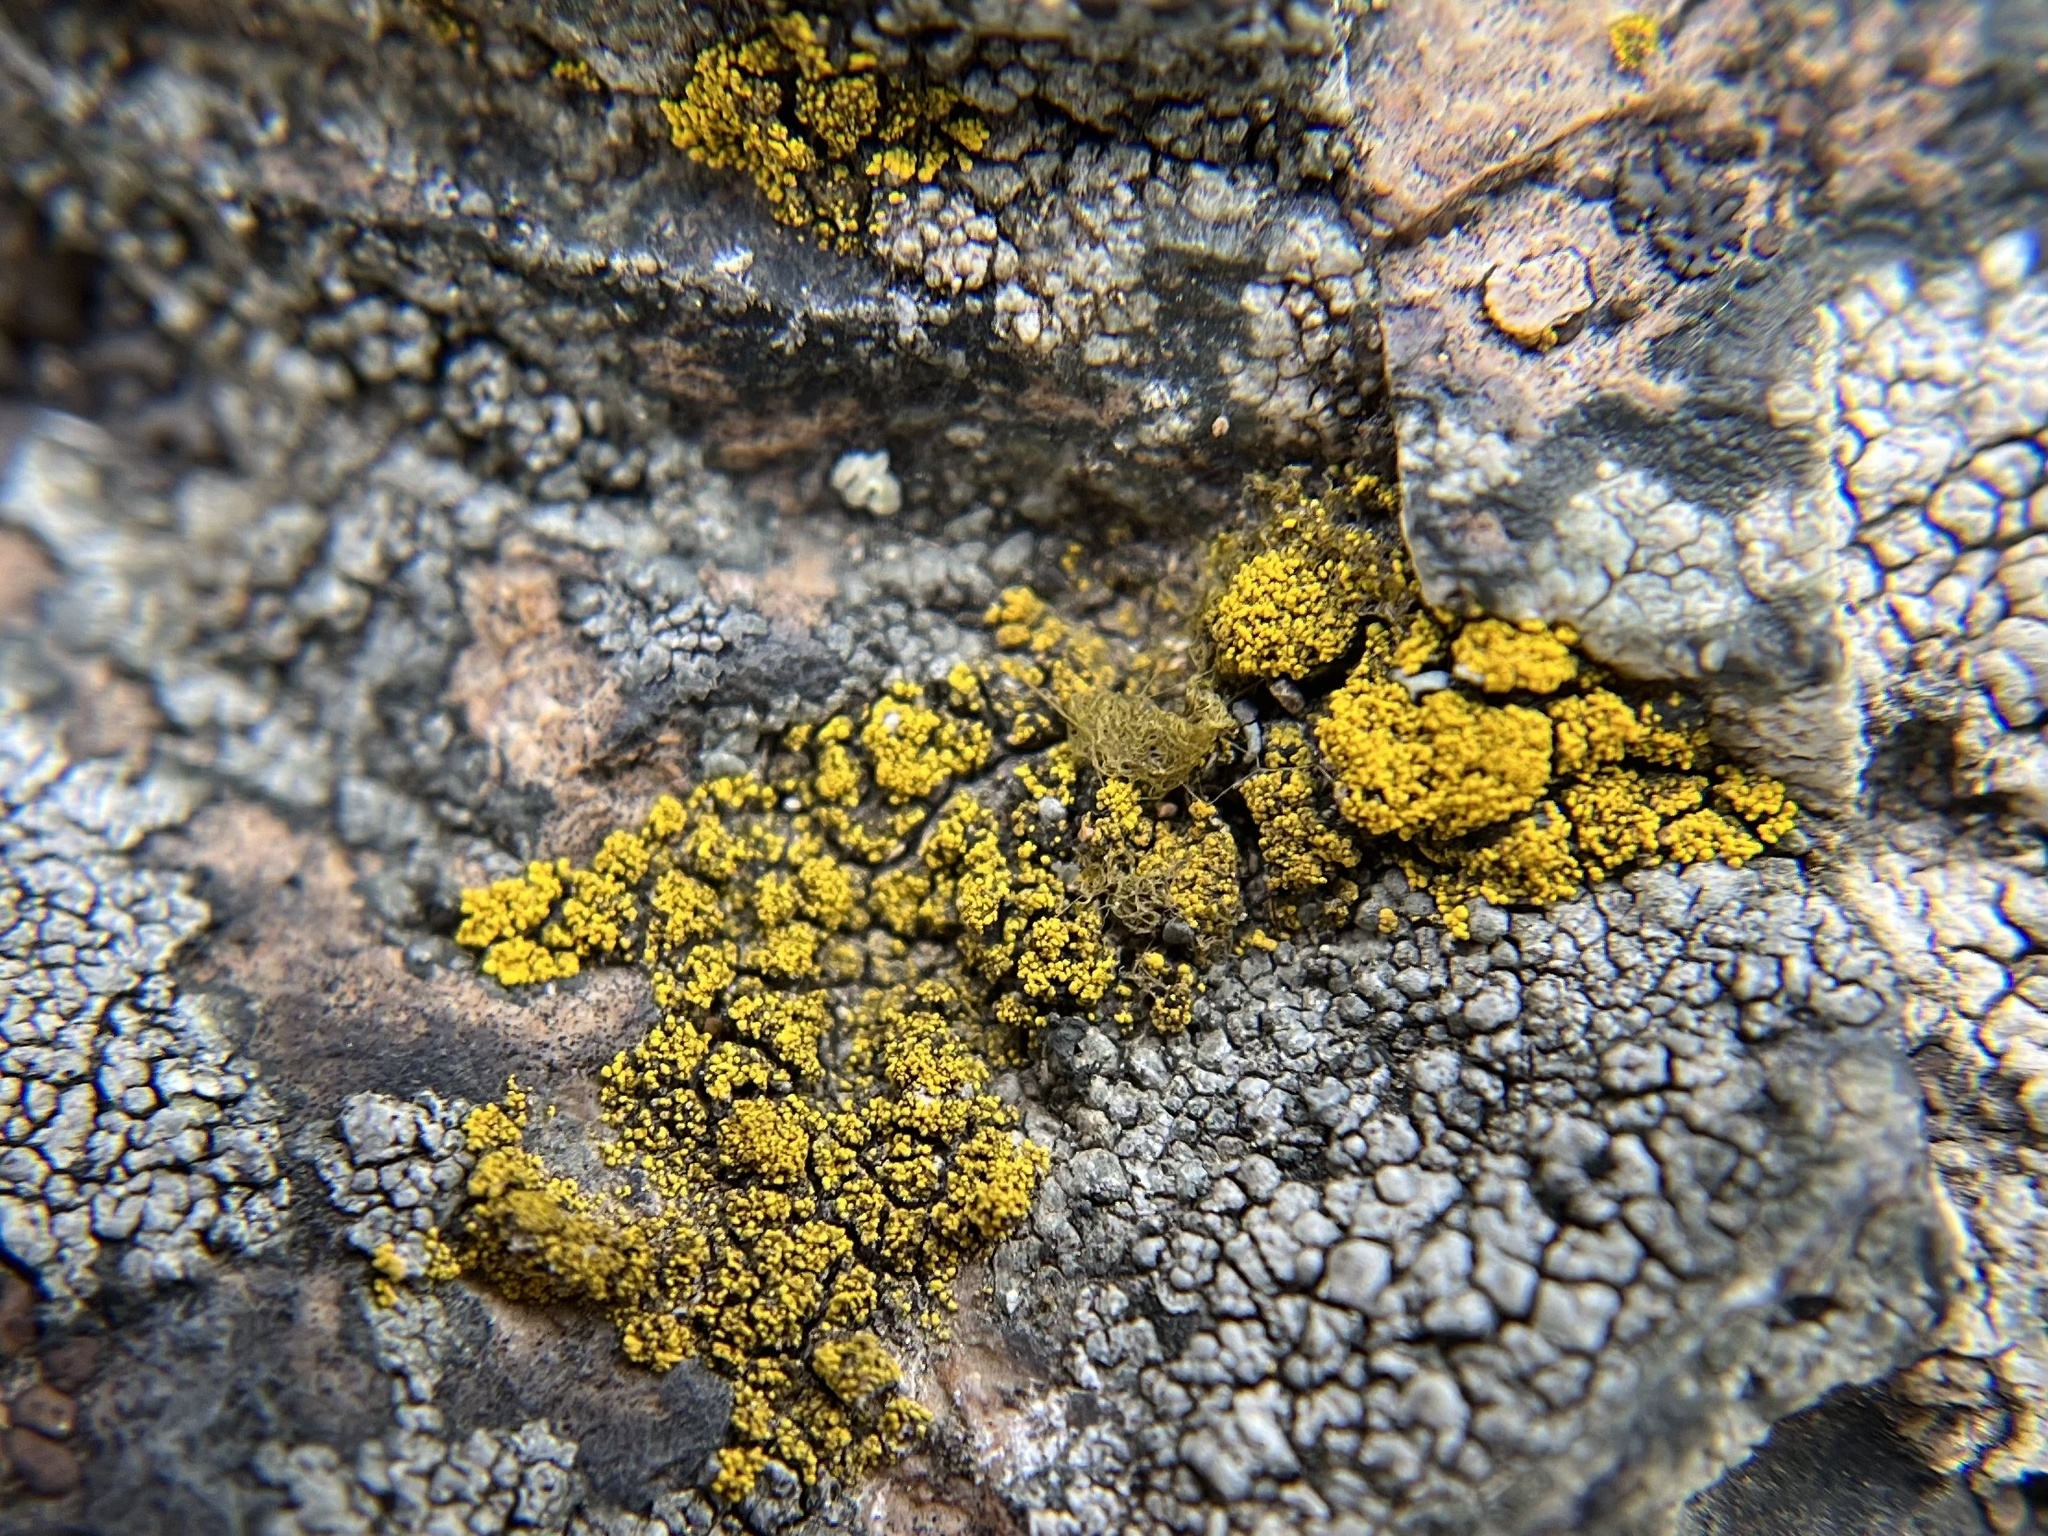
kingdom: Fungi
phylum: Ascomycota
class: Candelariomycetes
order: Candelariales
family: Candelariaceae
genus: Candelariella
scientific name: Candelariella coralliza
